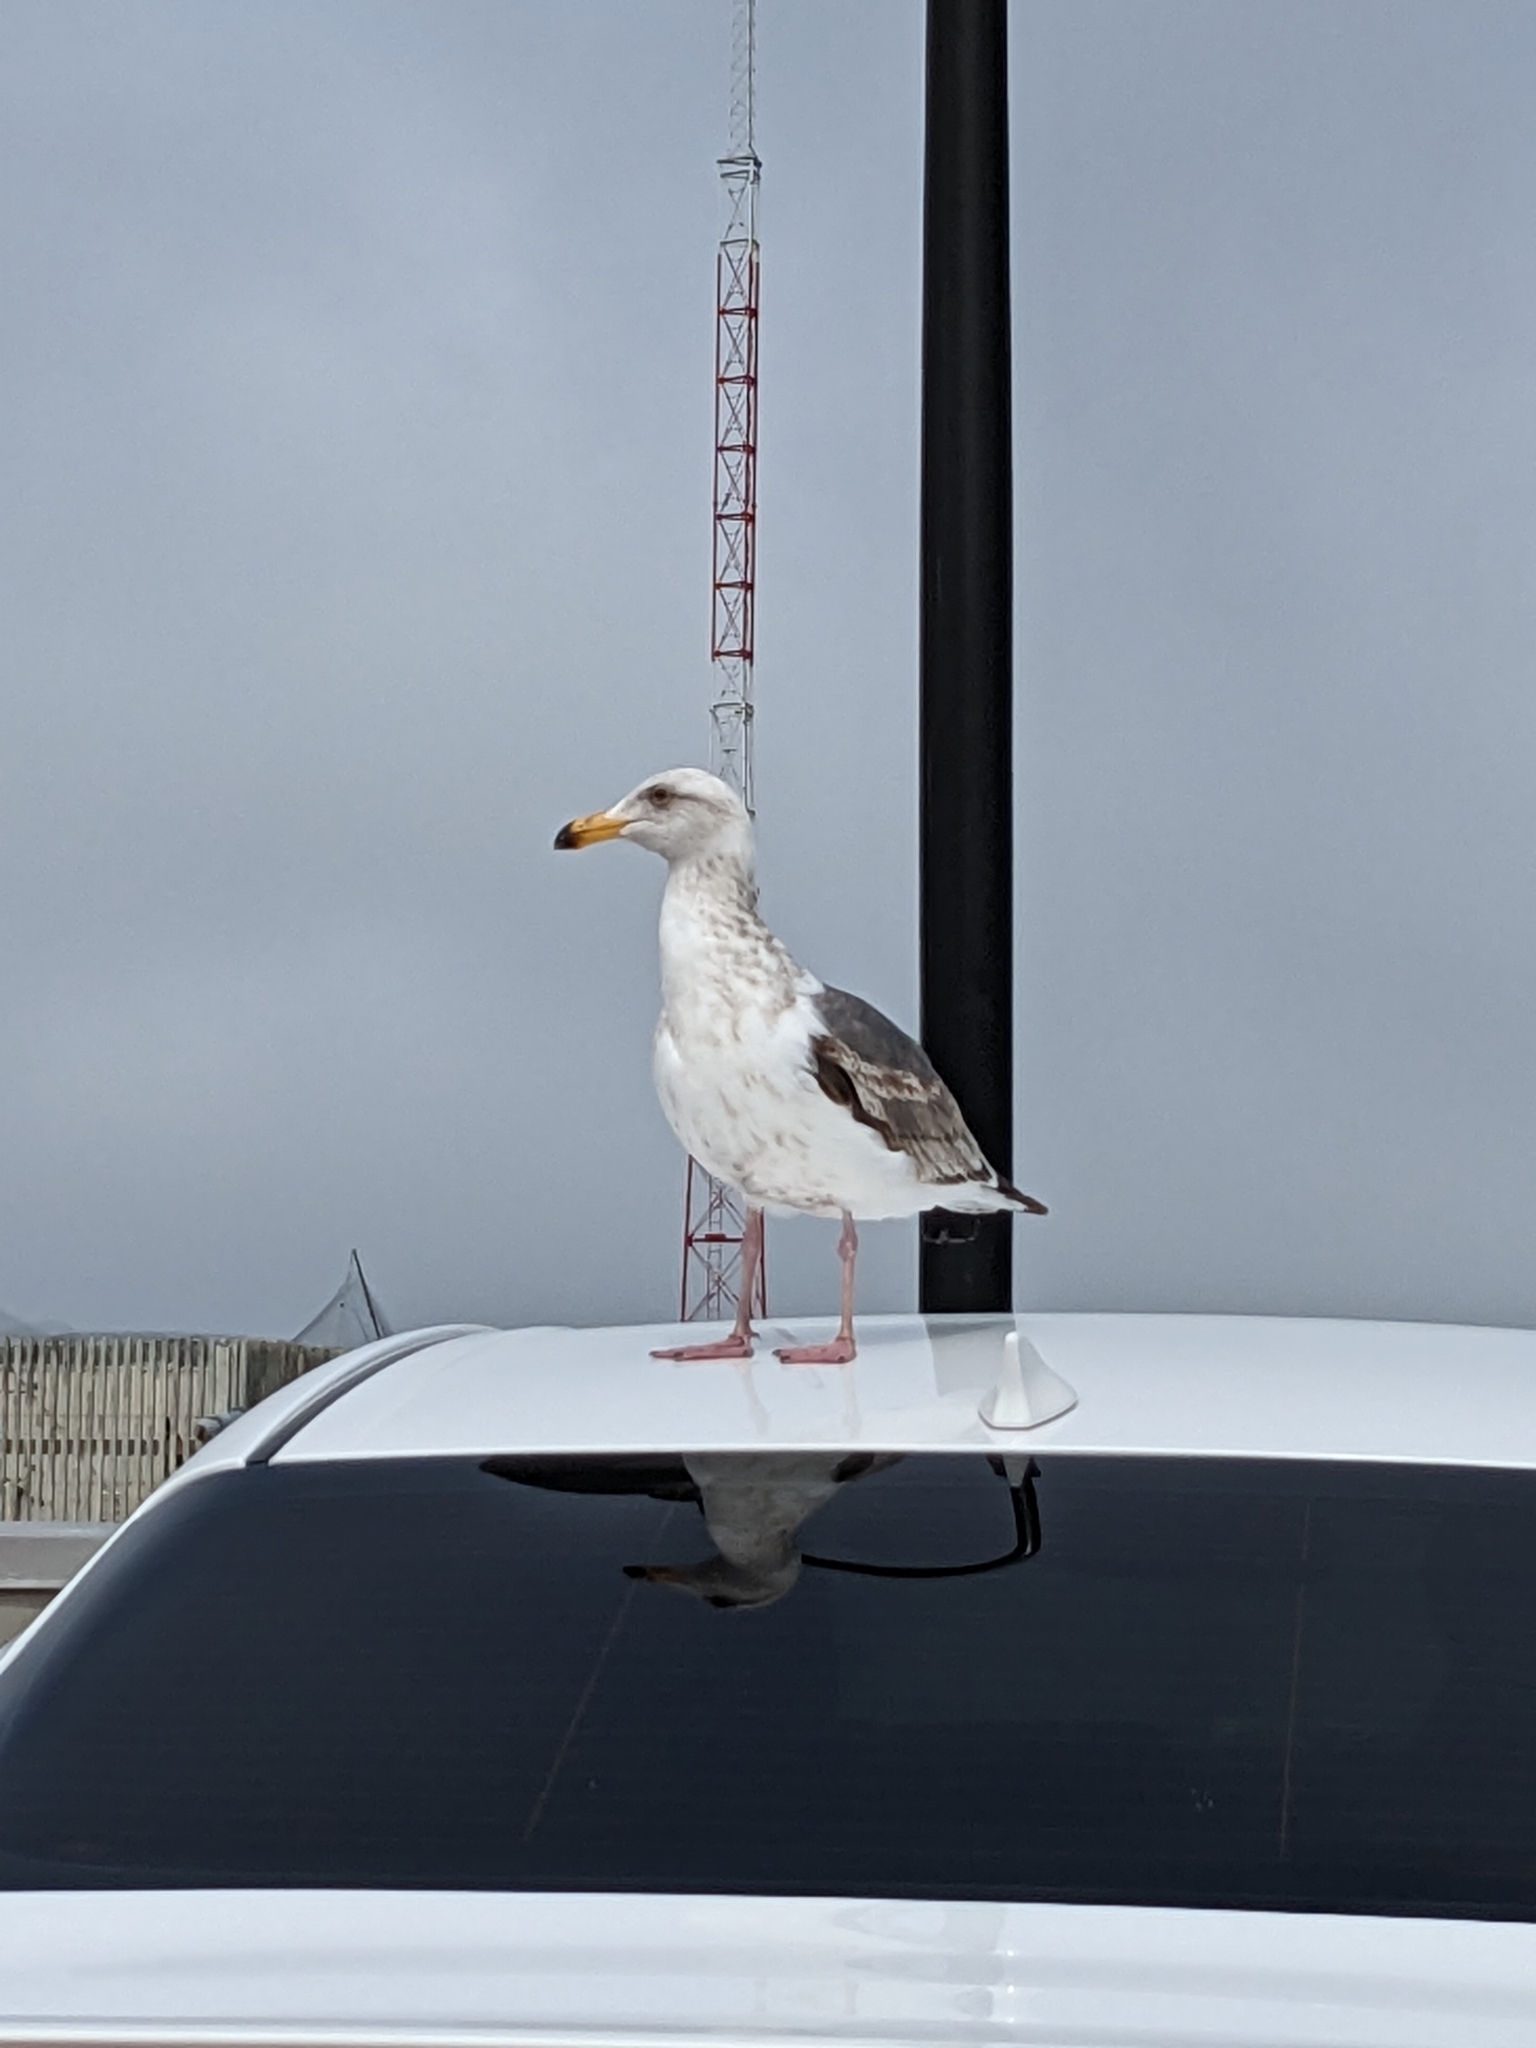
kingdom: Animalia
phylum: Chordata
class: Aves
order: Charadriiformes
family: Laridae
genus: Larus
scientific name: Larus occidentalis
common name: Western gull
